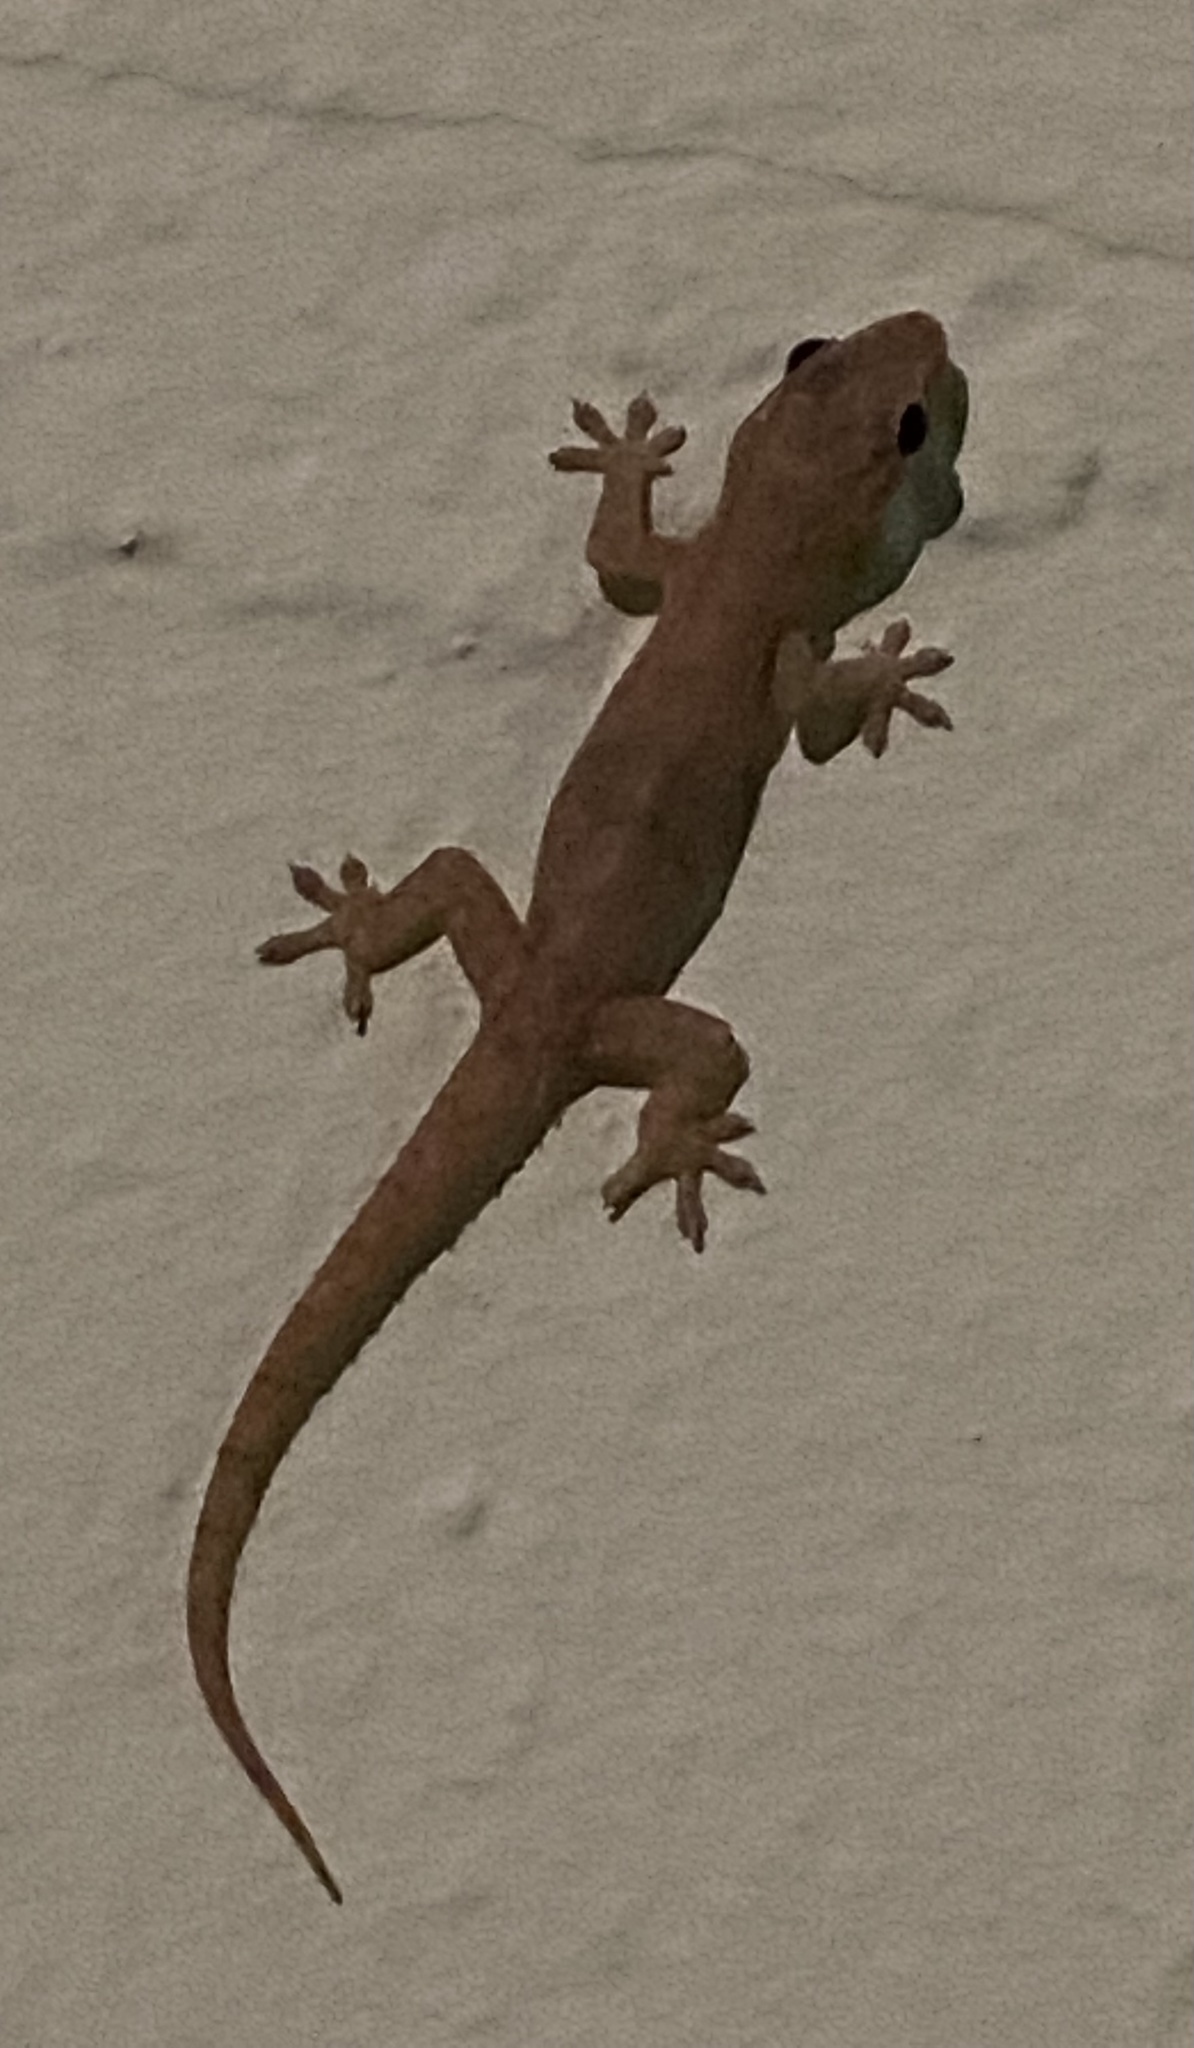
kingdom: Animalia
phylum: Chordata
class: Squamata
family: Gekkonidae
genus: Hemidactylus
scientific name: Hemidactylus frenatus
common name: Common house gecko
